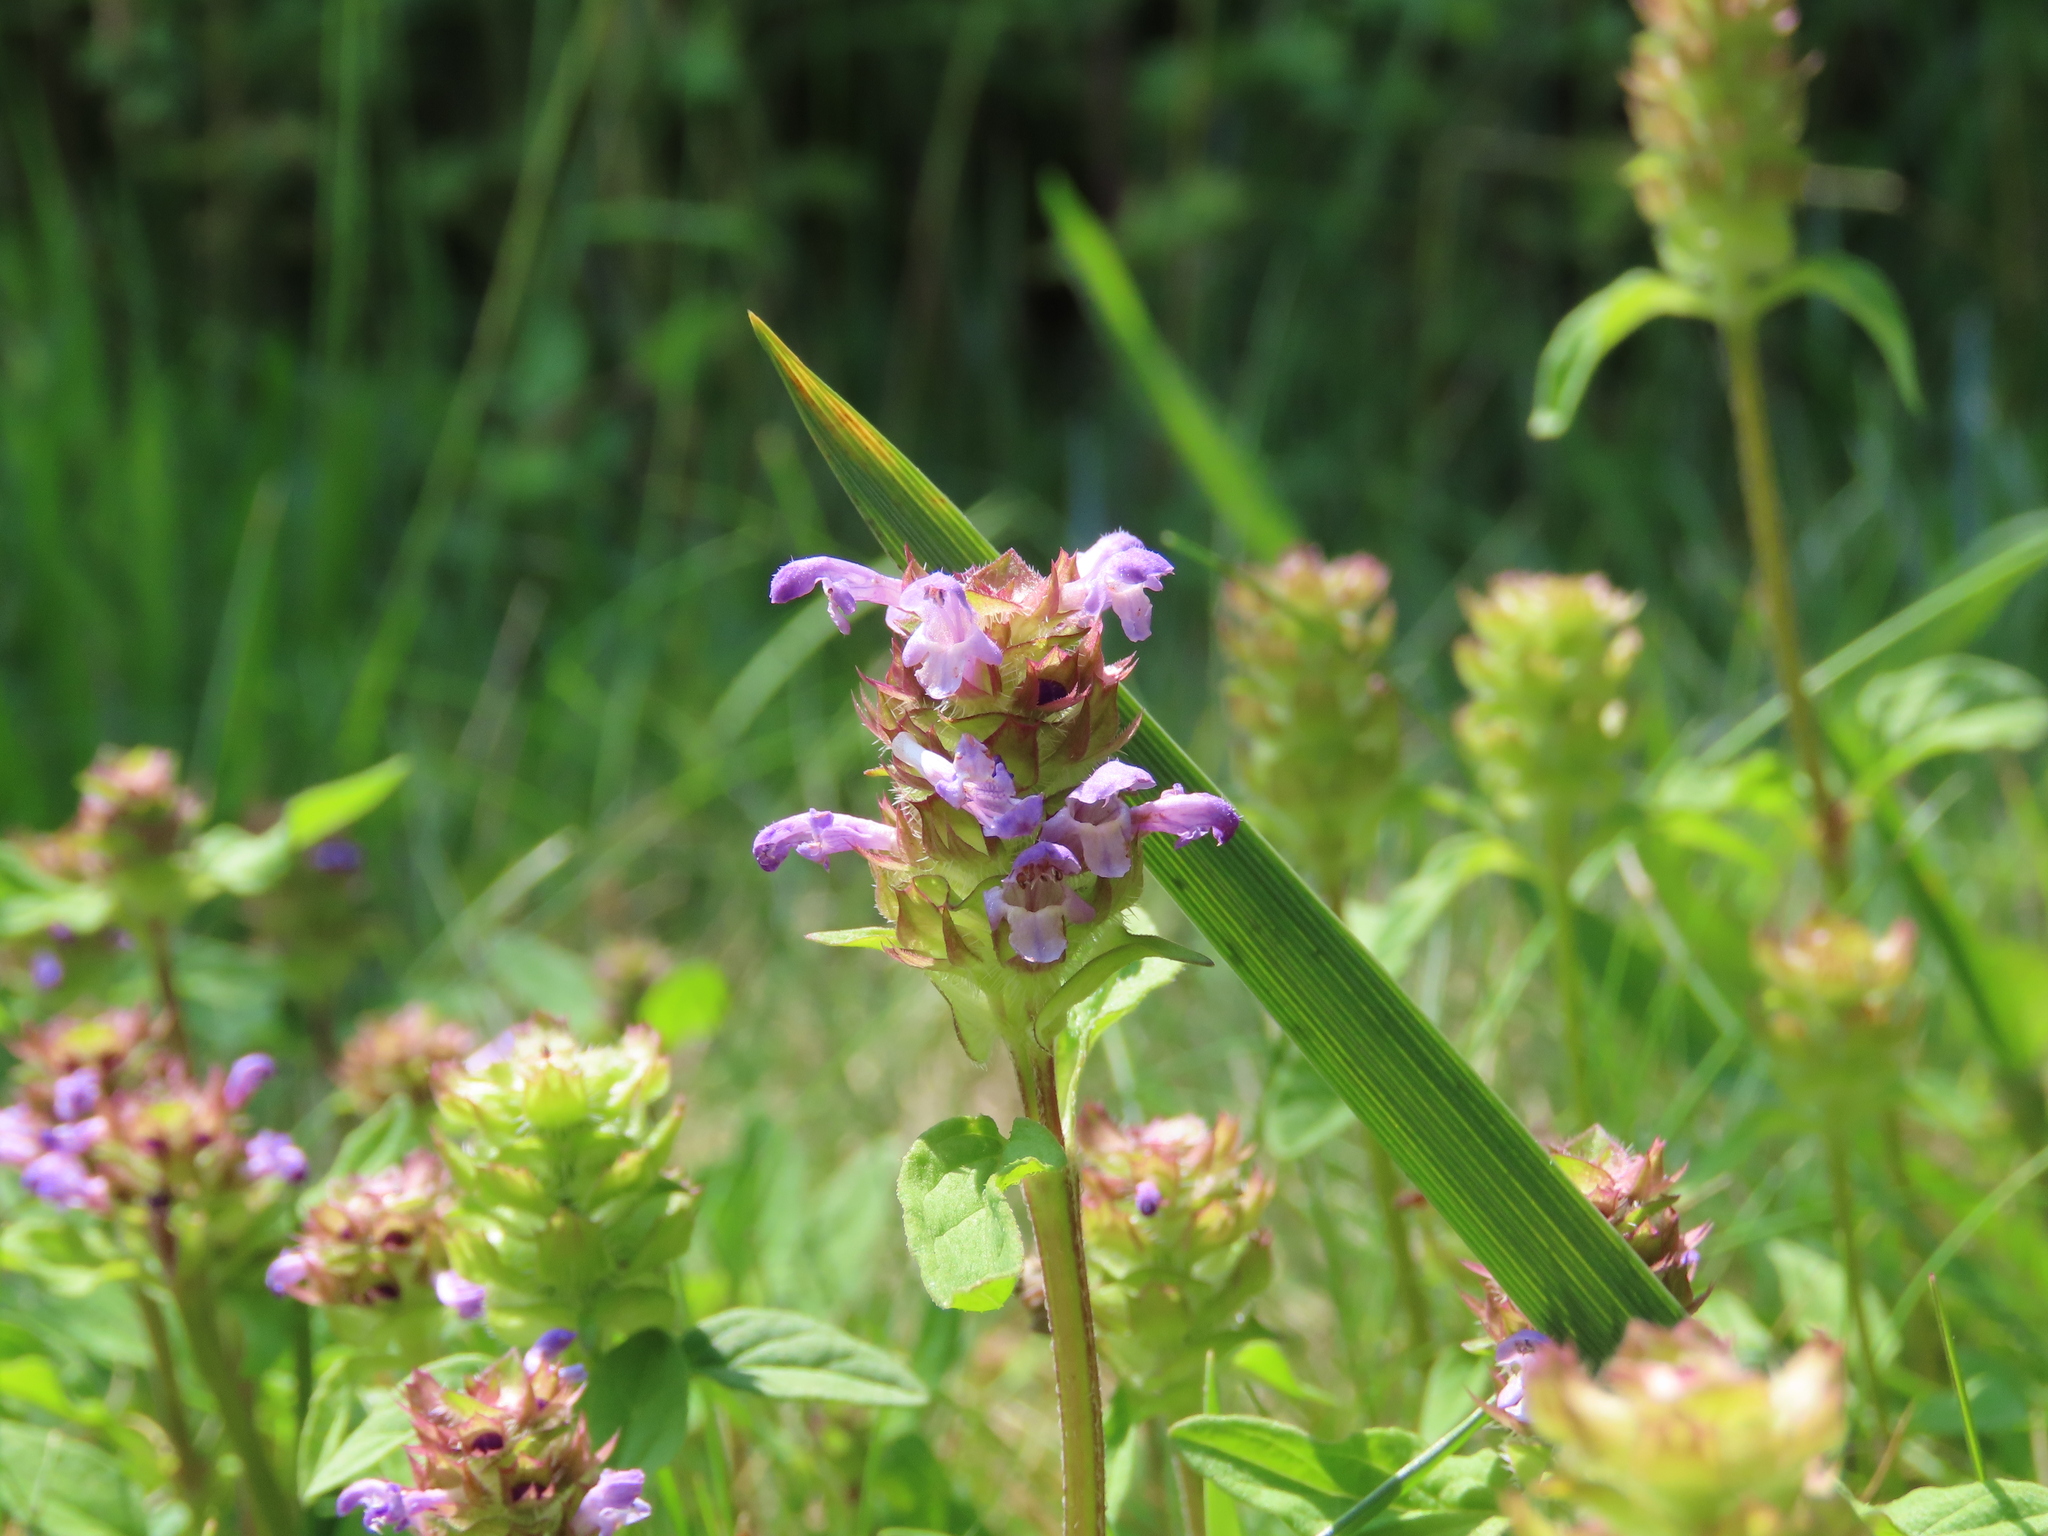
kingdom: Plantae
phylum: Tracheophyta
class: Magnoliopsida
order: Lamiales
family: Lamiaceae
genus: Prunella
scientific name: Prunella vulgaris
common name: Heal-all
